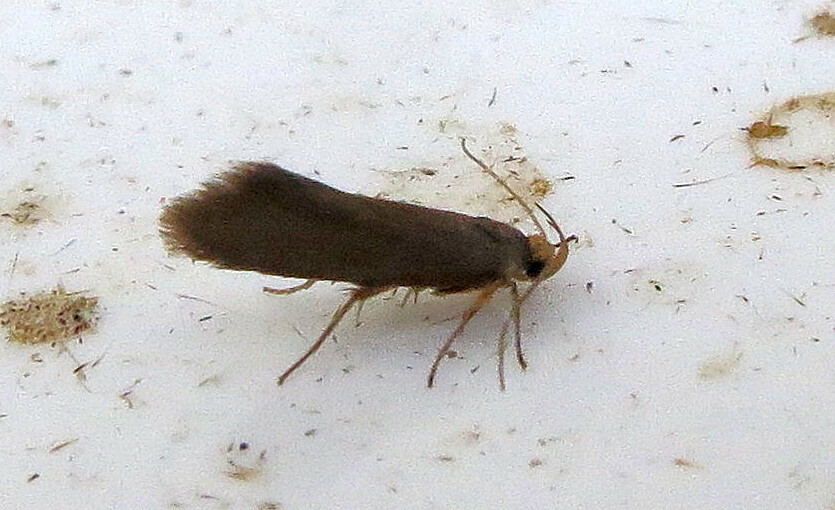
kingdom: Animalia
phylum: Arthropoda
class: Insecta
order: Lepidoptera
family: Oecophoridae
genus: Borkhausenia
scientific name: Borkhausenia Crassa unitella
